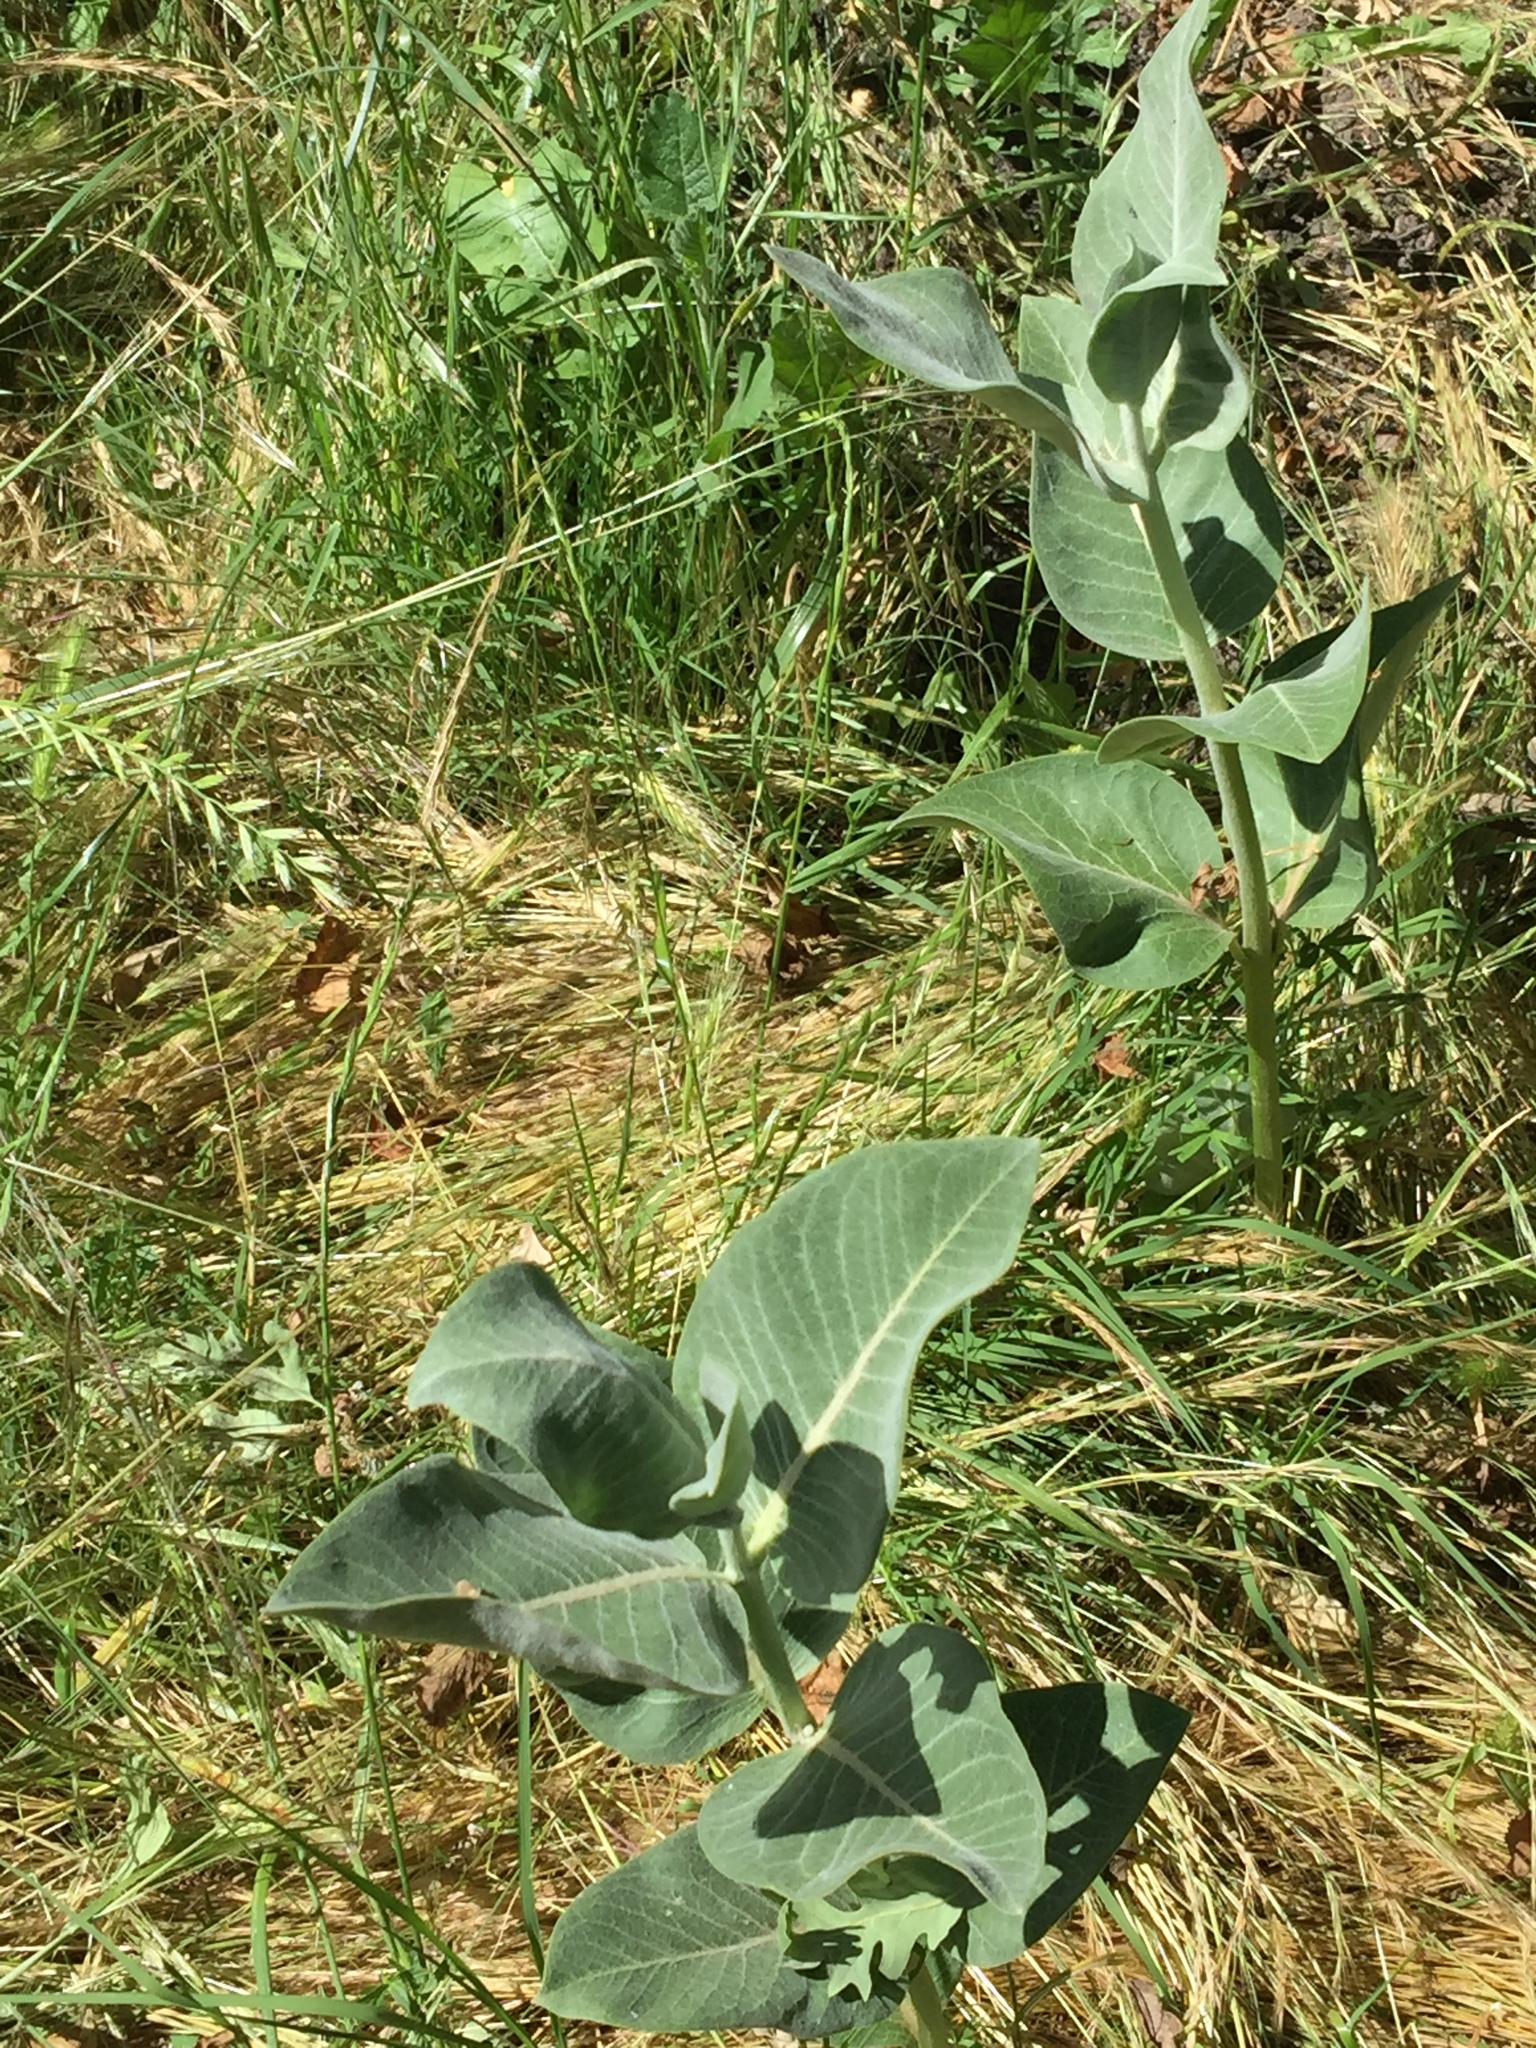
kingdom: Plantae
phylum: Tracheophyta
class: Magnoliopsida
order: Gentianales
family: Apocynaceae
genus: Asclepias
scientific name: Asclepias speciosa
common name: Showy milkweed
